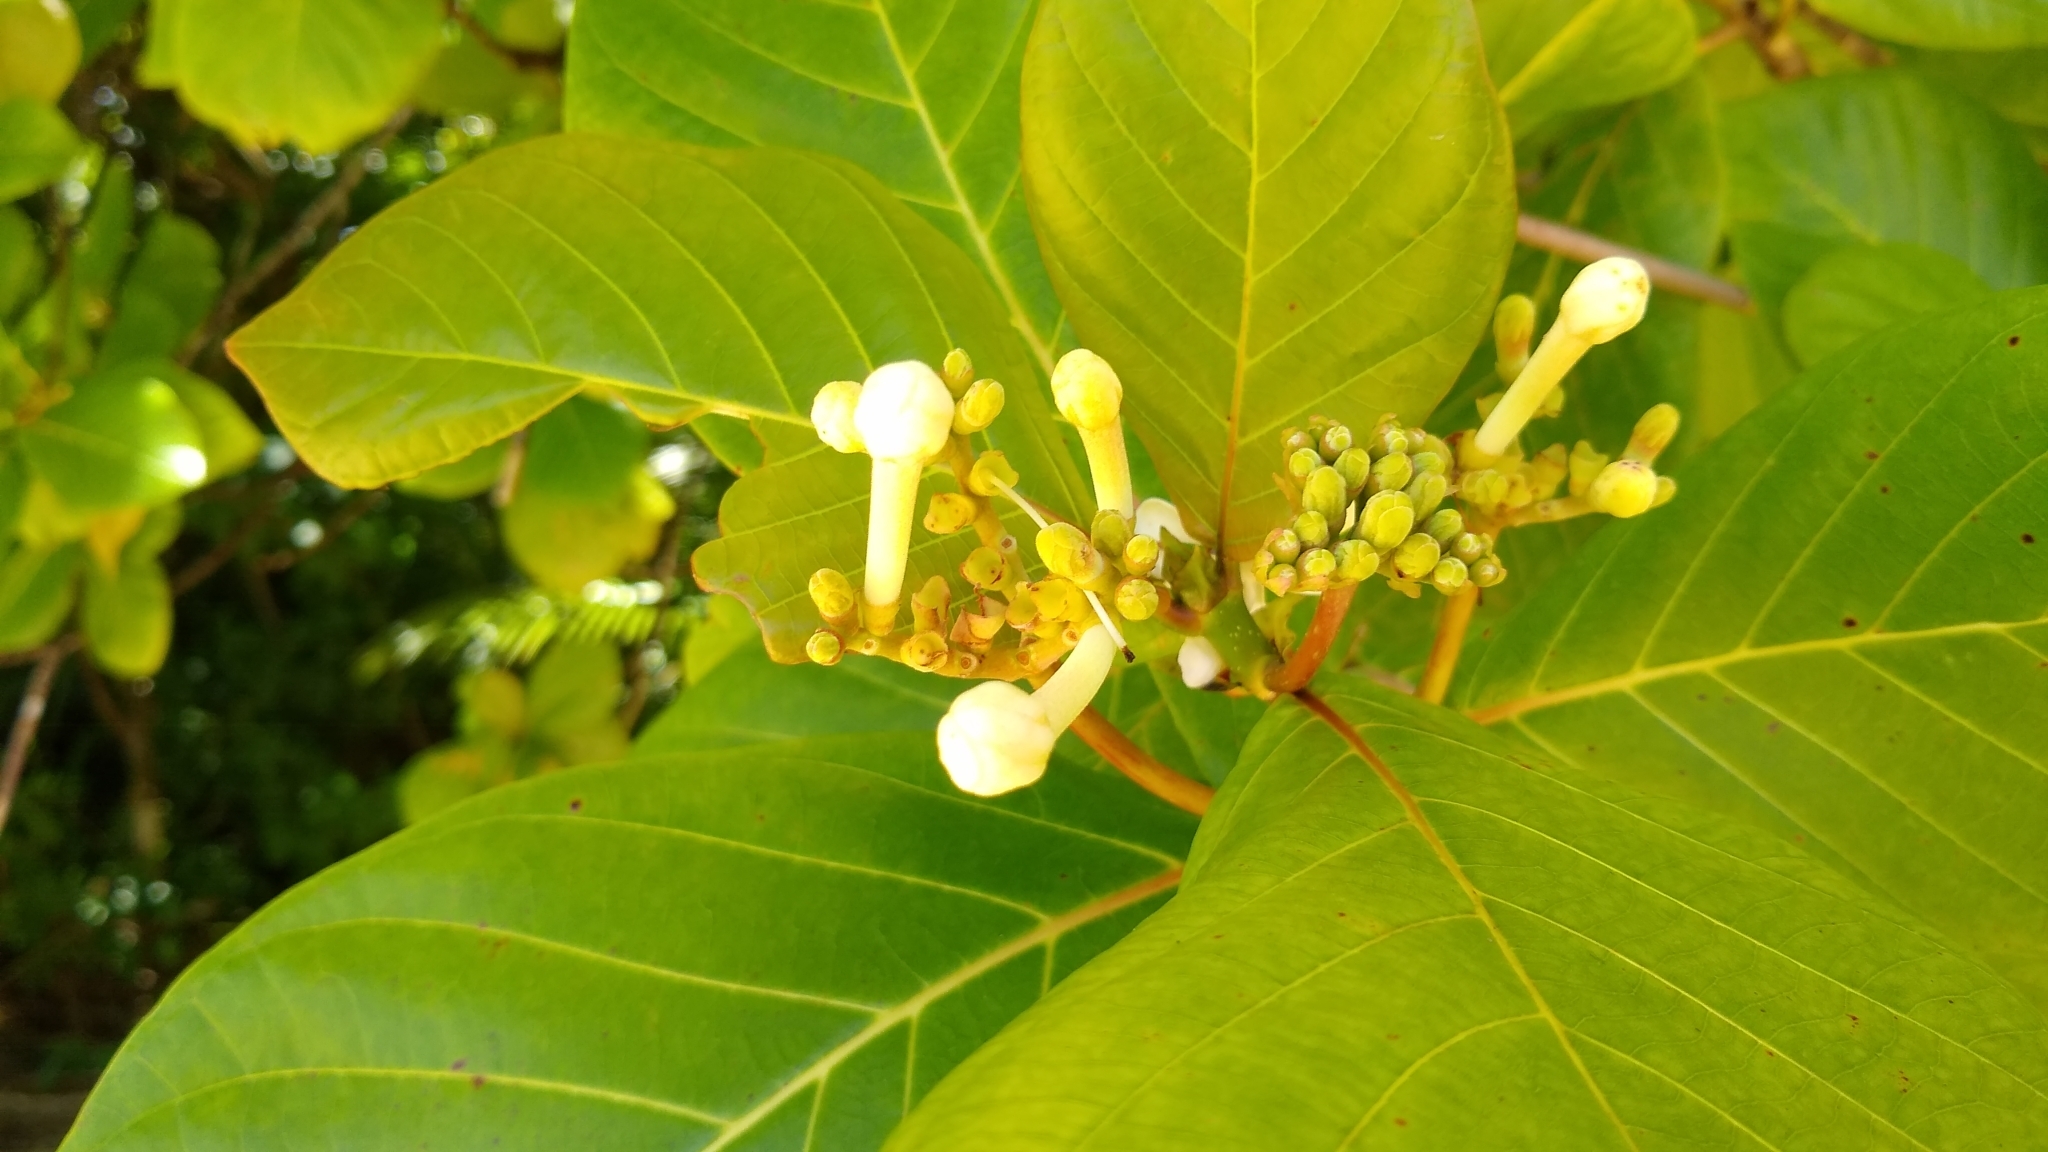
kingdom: Plantae
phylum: Tracheophyta
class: Magnoliopsida
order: Gentianales
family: Rubiaceae
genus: Guettarda
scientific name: Guettarda speciosa
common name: Sea randa
